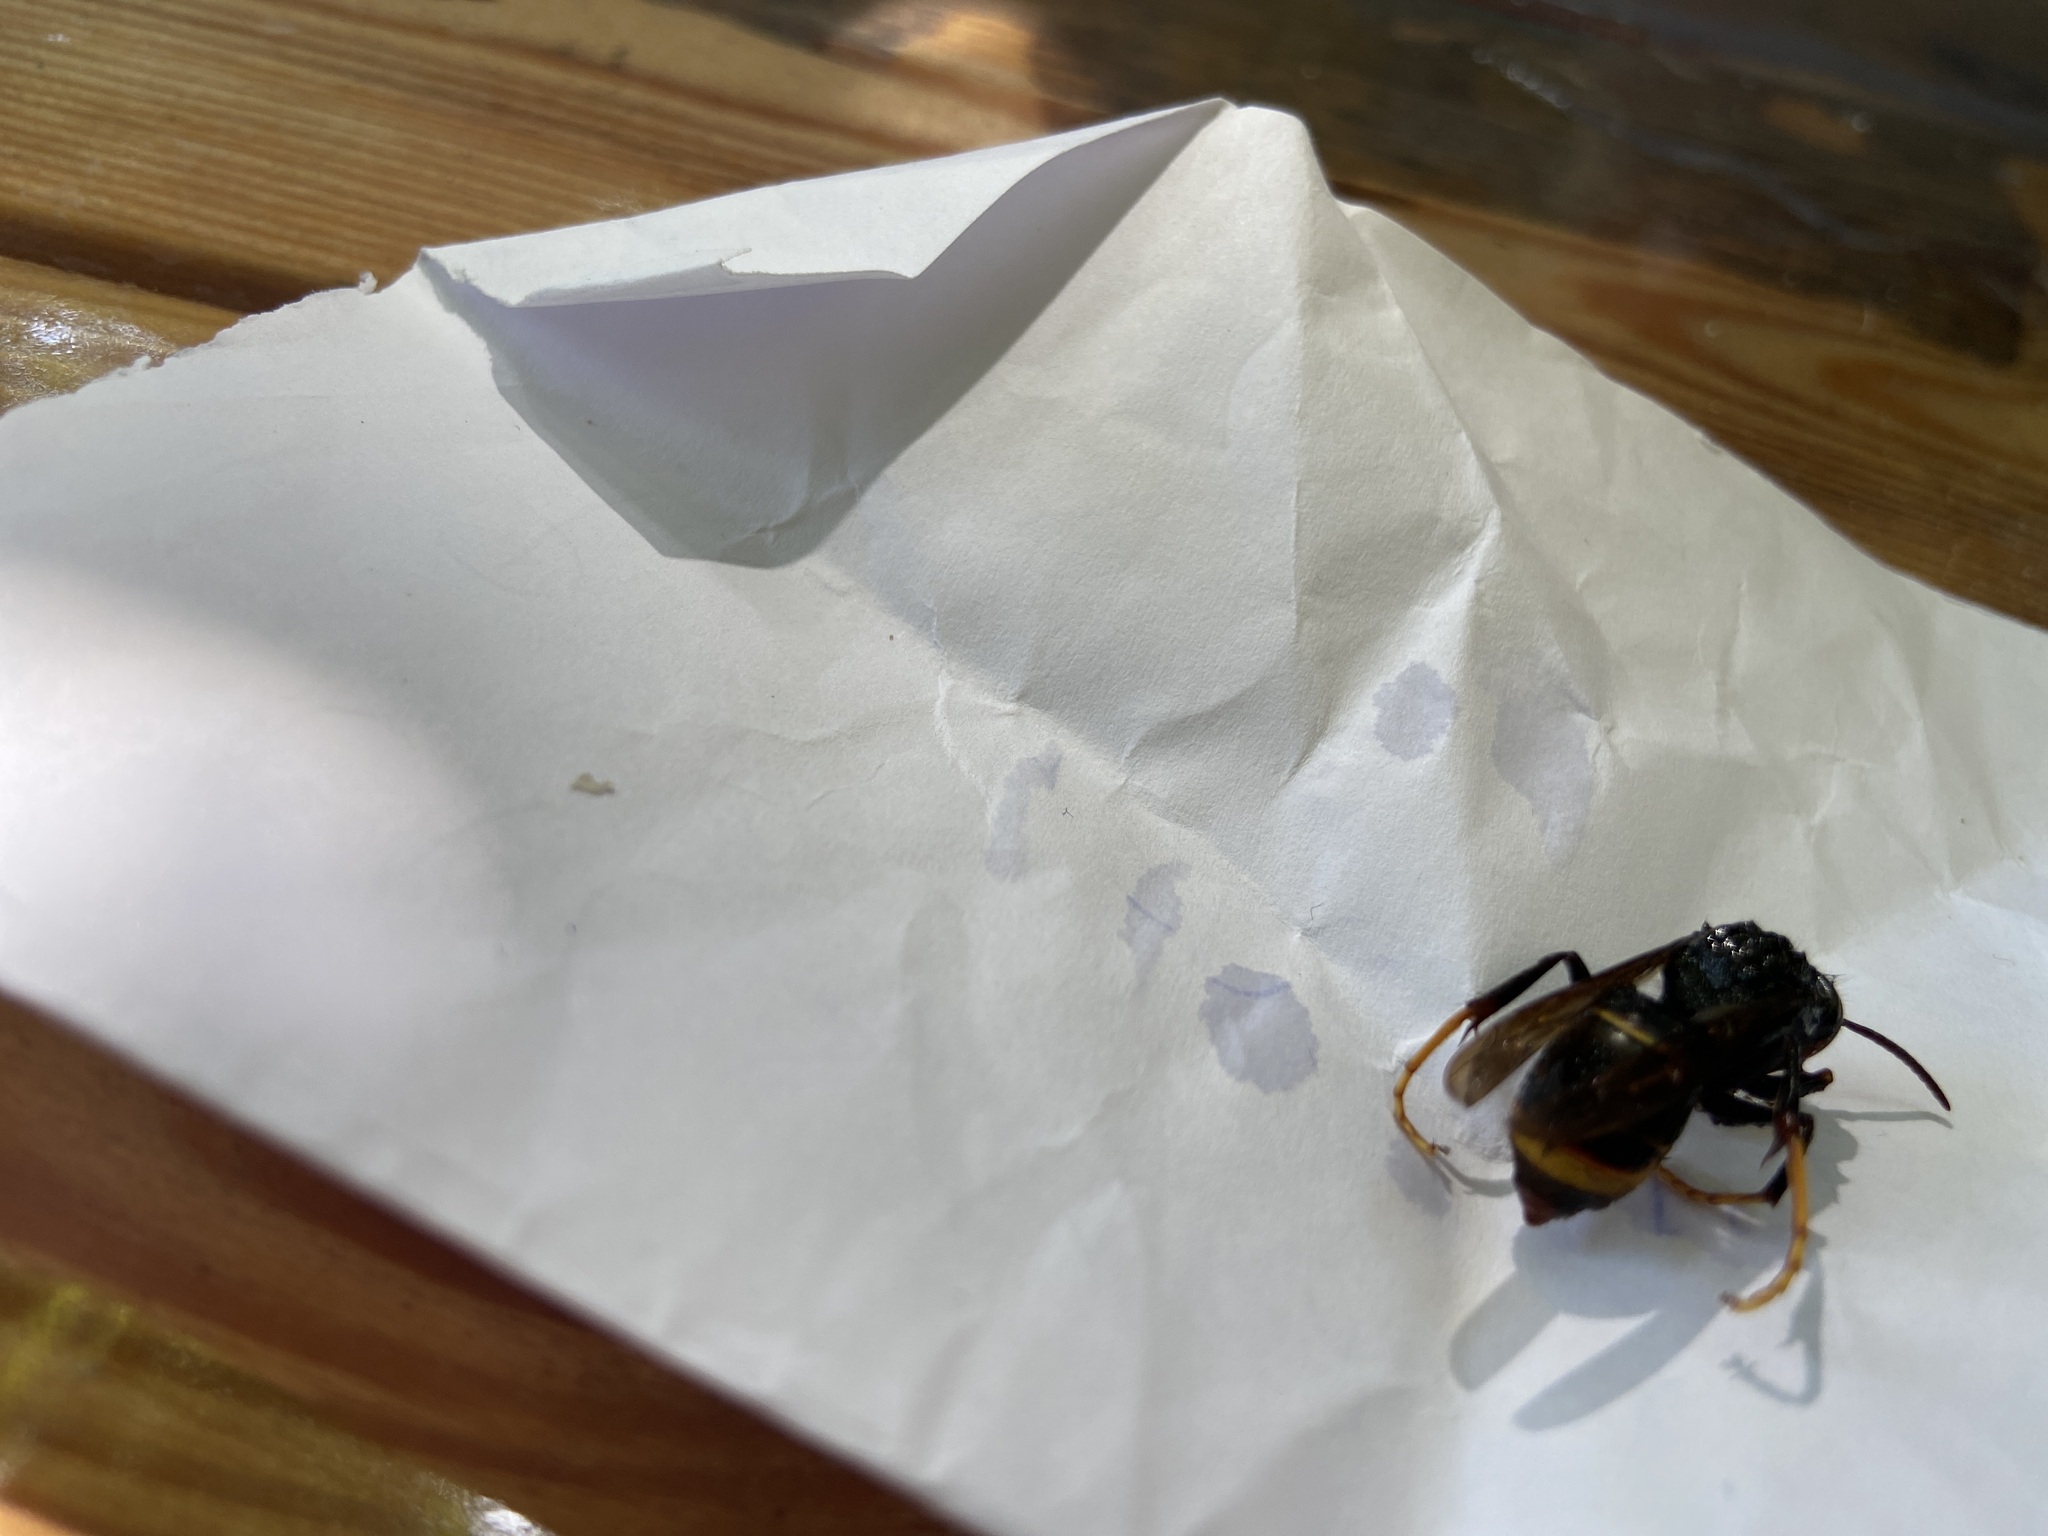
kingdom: Animalia
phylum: Arthropoda
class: Insecta
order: Hymenoptera
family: Vespidae
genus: Vespa
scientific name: Vespa velutina
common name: Asian hornet
